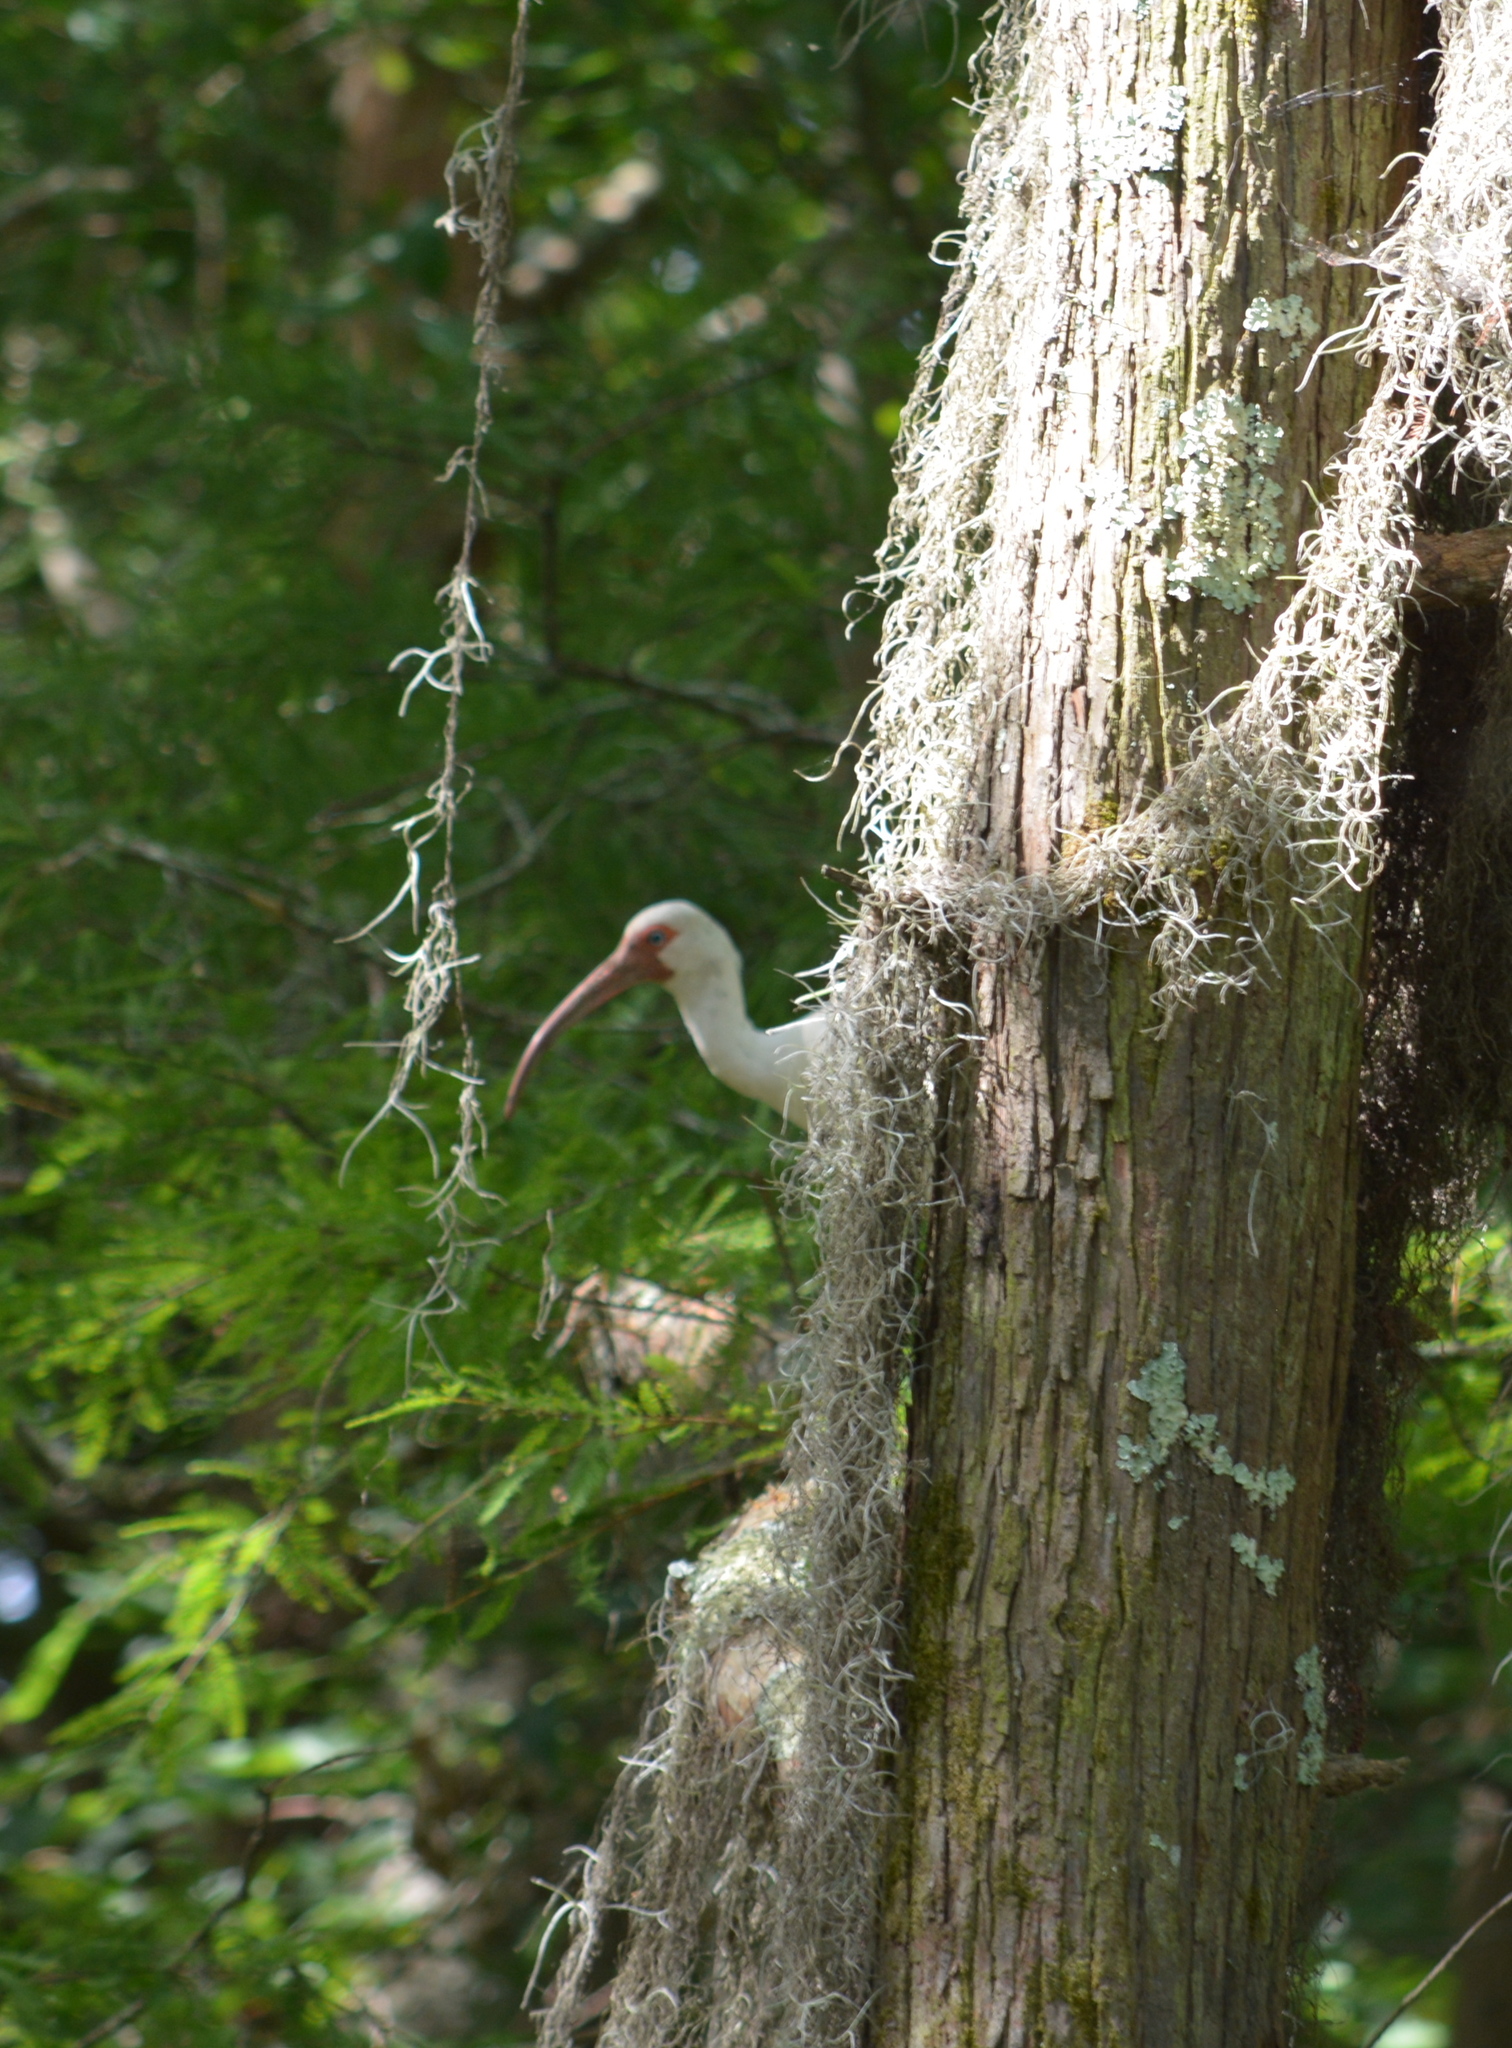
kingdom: Animalia
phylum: Chordata
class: Aves
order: Pelecaniformes
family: Threskiornithidae
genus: Eudocimus
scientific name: Eudocimus albus
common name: White ibis
